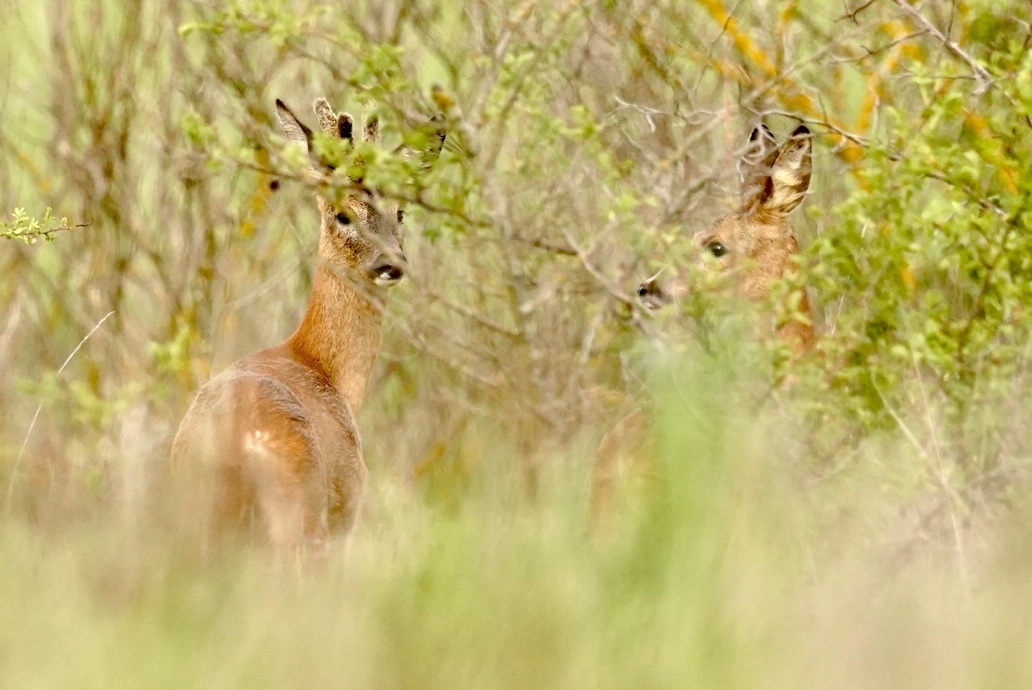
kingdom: Animalia
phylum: Chordata
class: Mammalia
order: Artiodactyla
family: Cervidae
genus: Capreolus
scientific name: Capreolus capreolus
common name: Western roe deer
